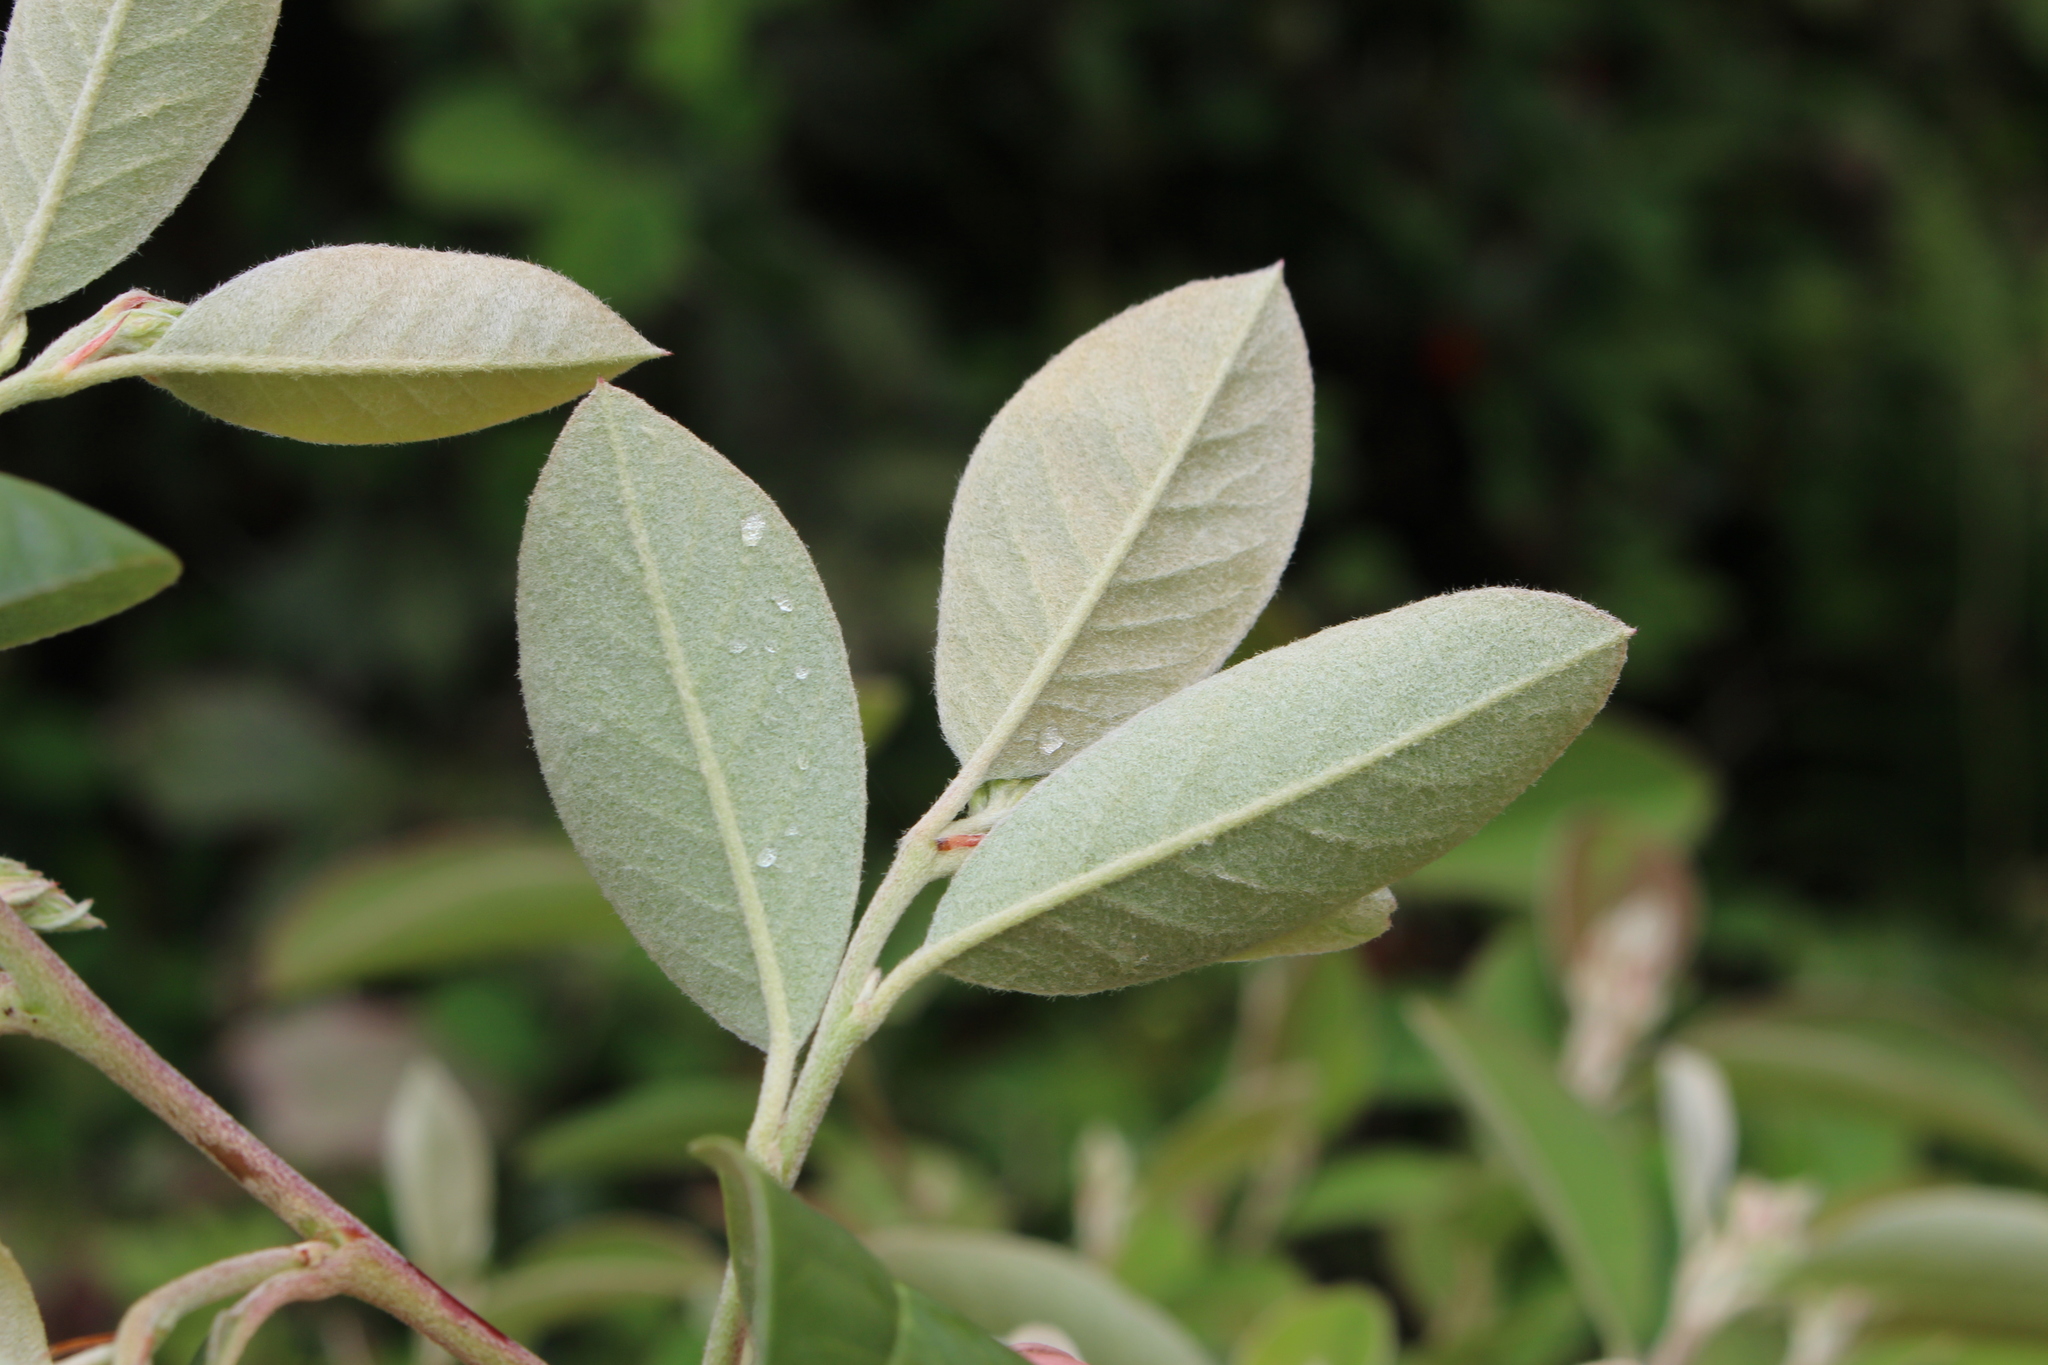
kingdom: Plantae
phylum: Tracheophyta
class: Magnoliopsida
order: Rosales
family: Rosaceae
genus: Cotoneaster
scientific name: Cotoneaster glaucophyllus
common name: Glaucous cotoneaster
